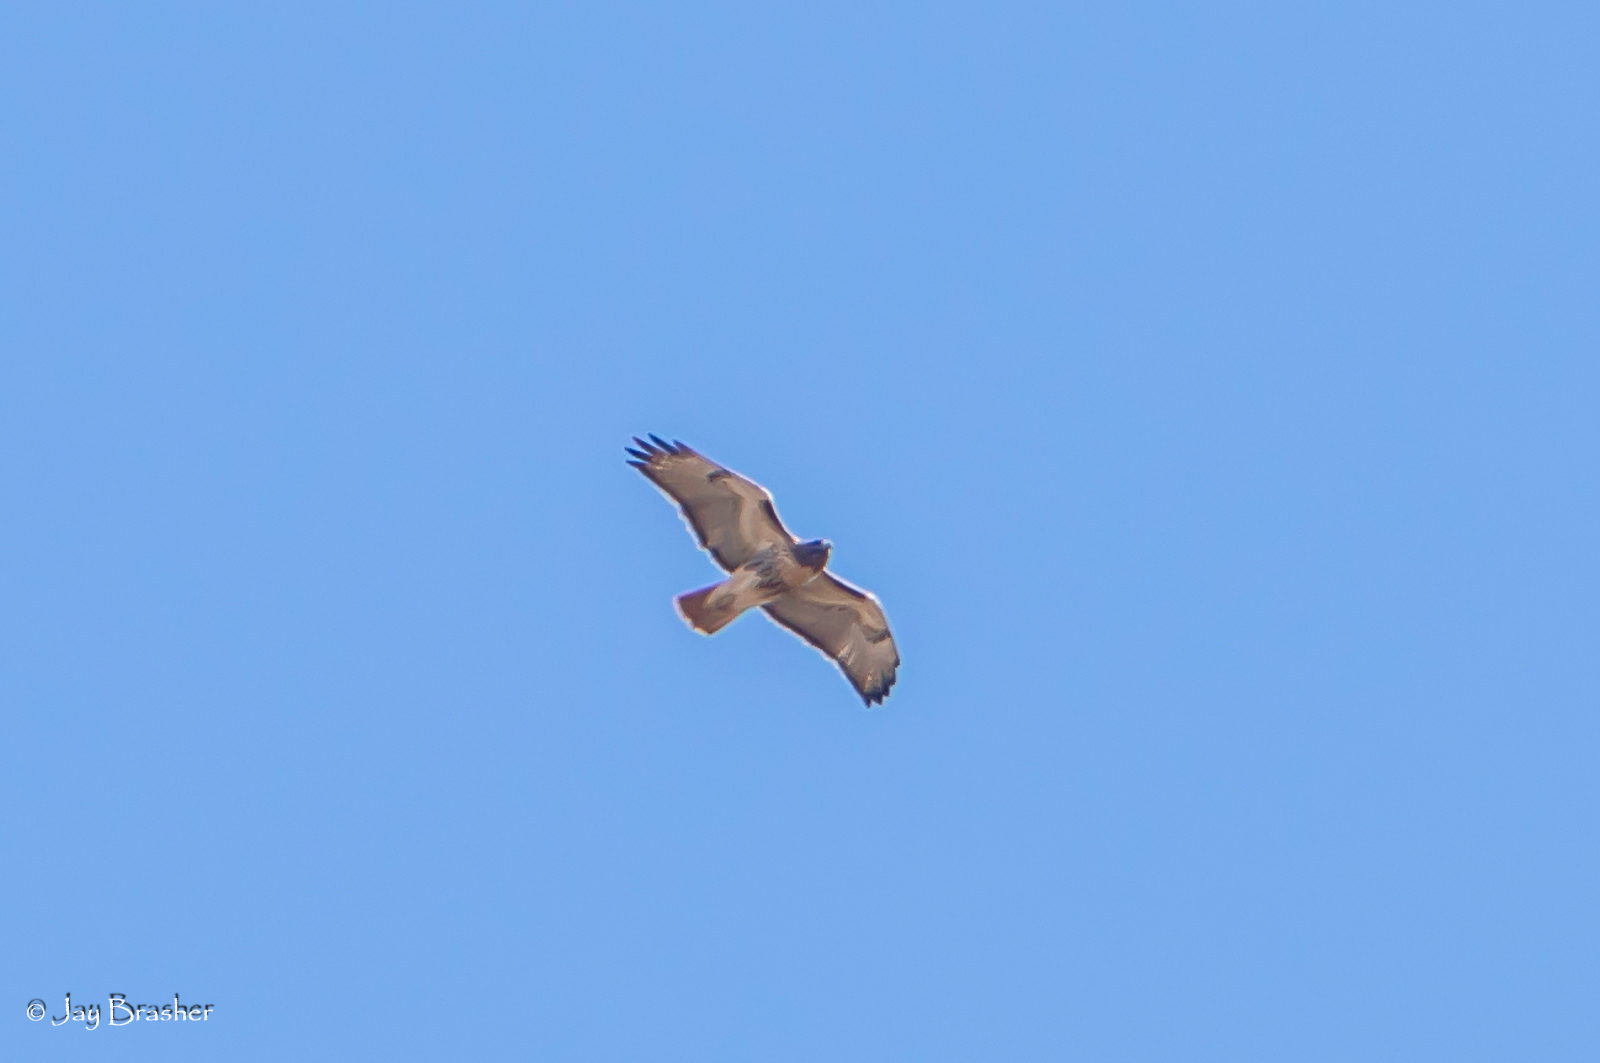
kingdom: Animalia
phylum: Chordata
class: Aves
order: Accipitriformes
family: Accipitridae
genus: Buteo
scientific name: Buteo jamaicensis
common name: Red-tailed hawk
